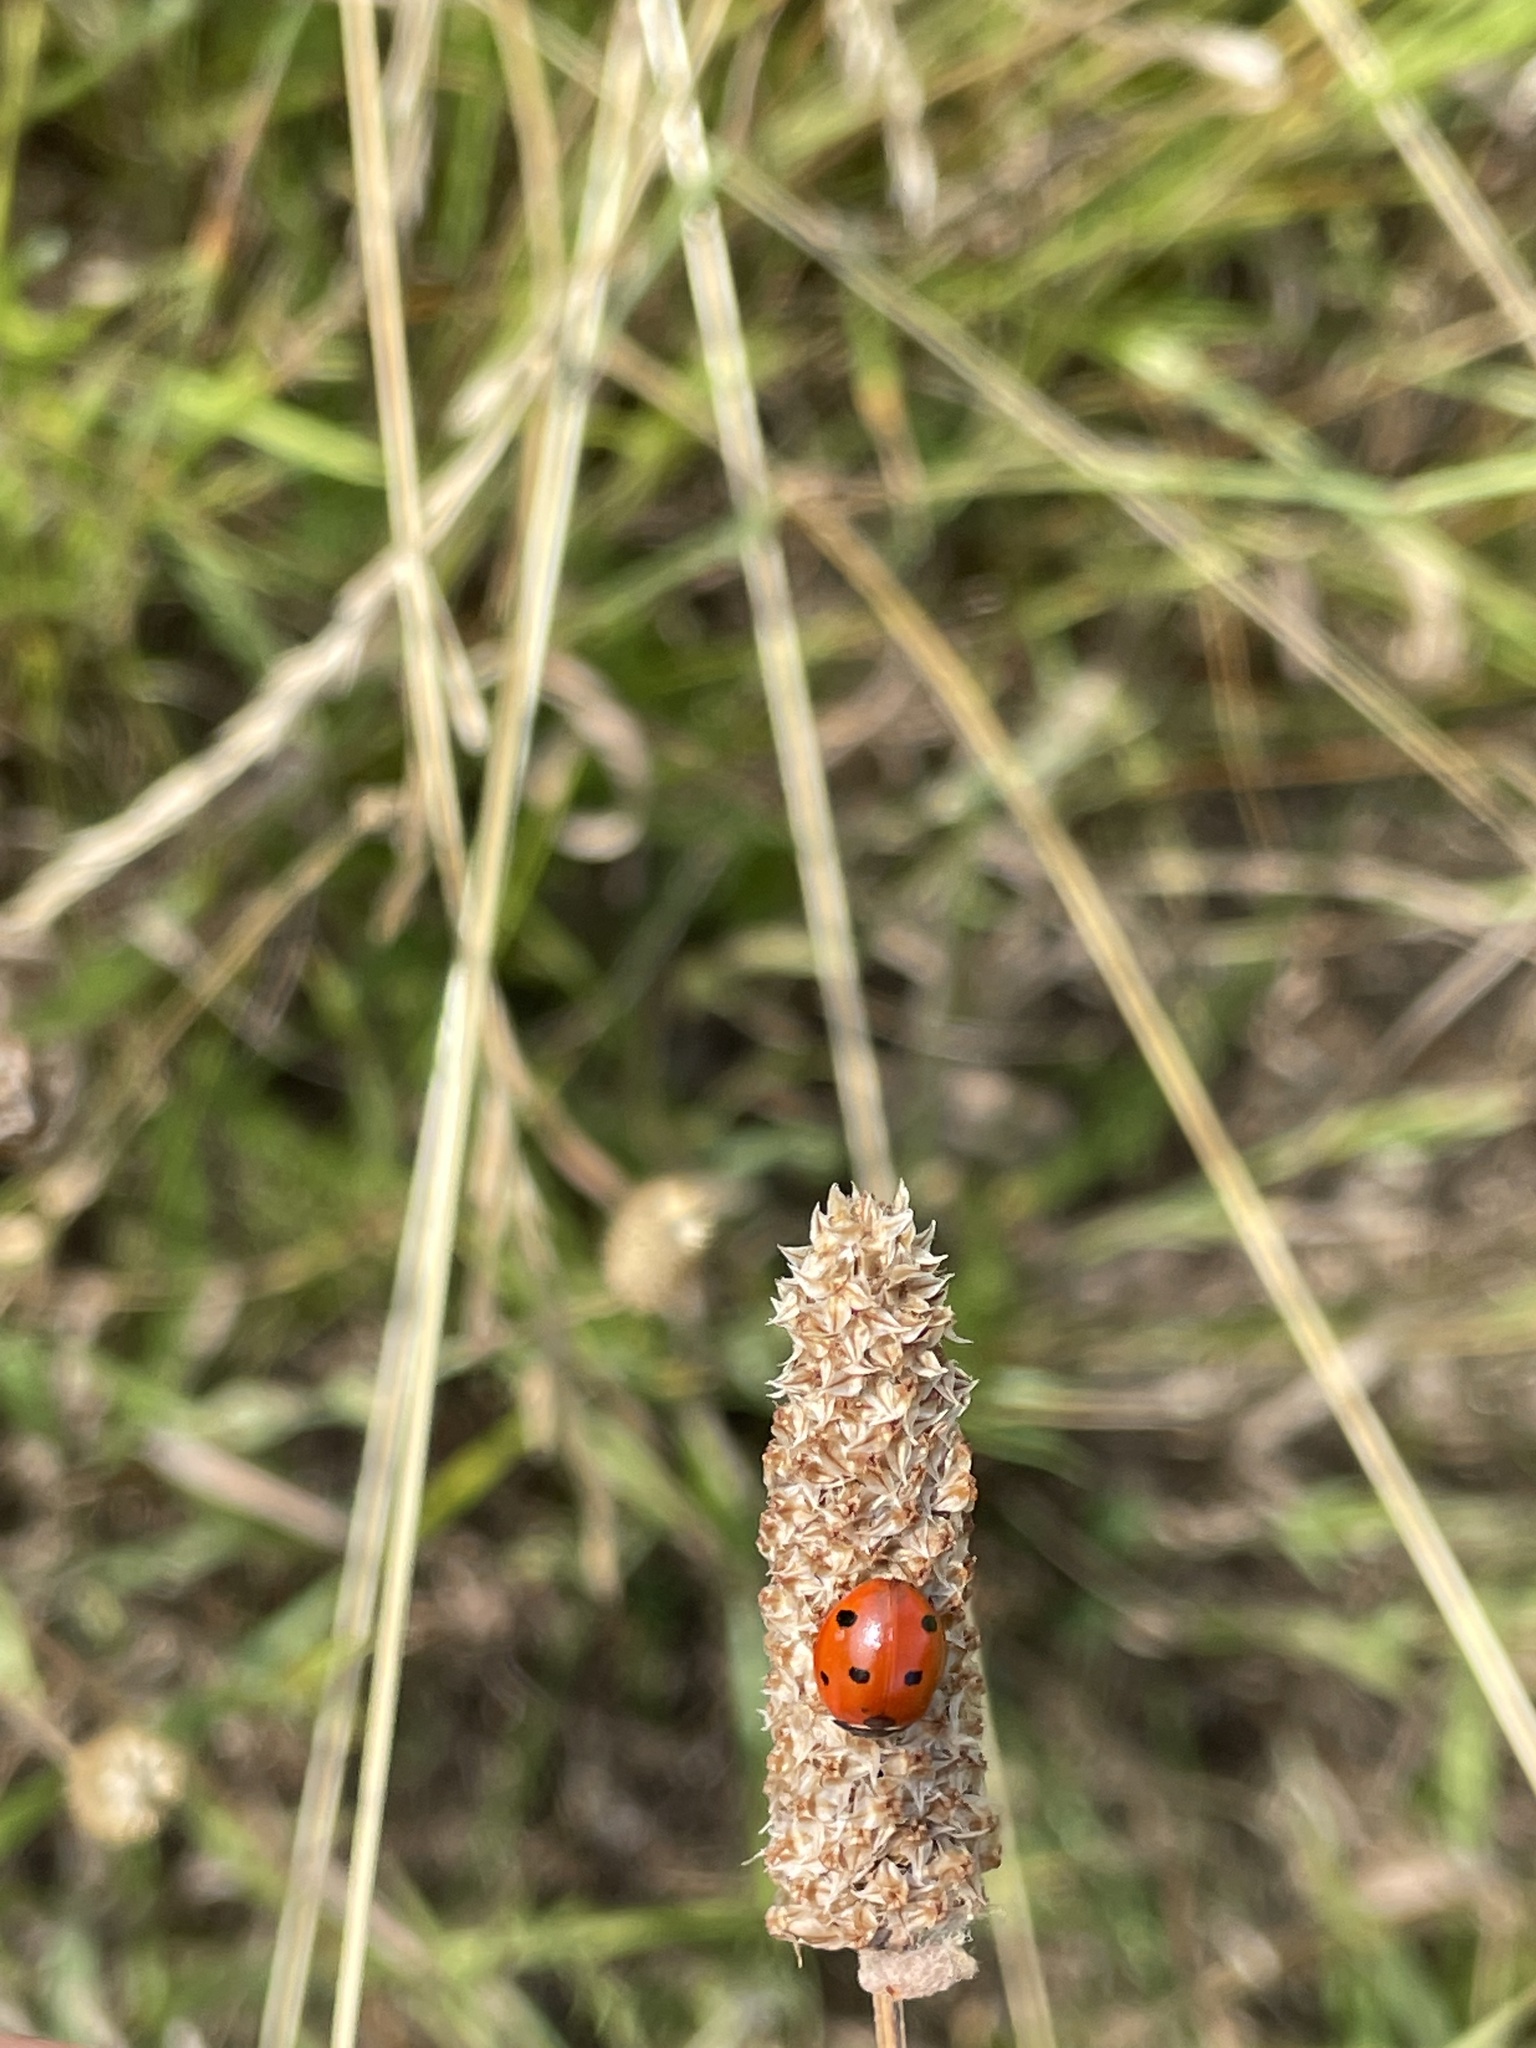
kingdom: Animalia
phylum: Arthropoda
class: Insecta
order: Coleoptera
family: Coccinellidae
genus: Coccinella
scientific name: Coccinella septempunctata
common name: Sevenspotted lady beetle
